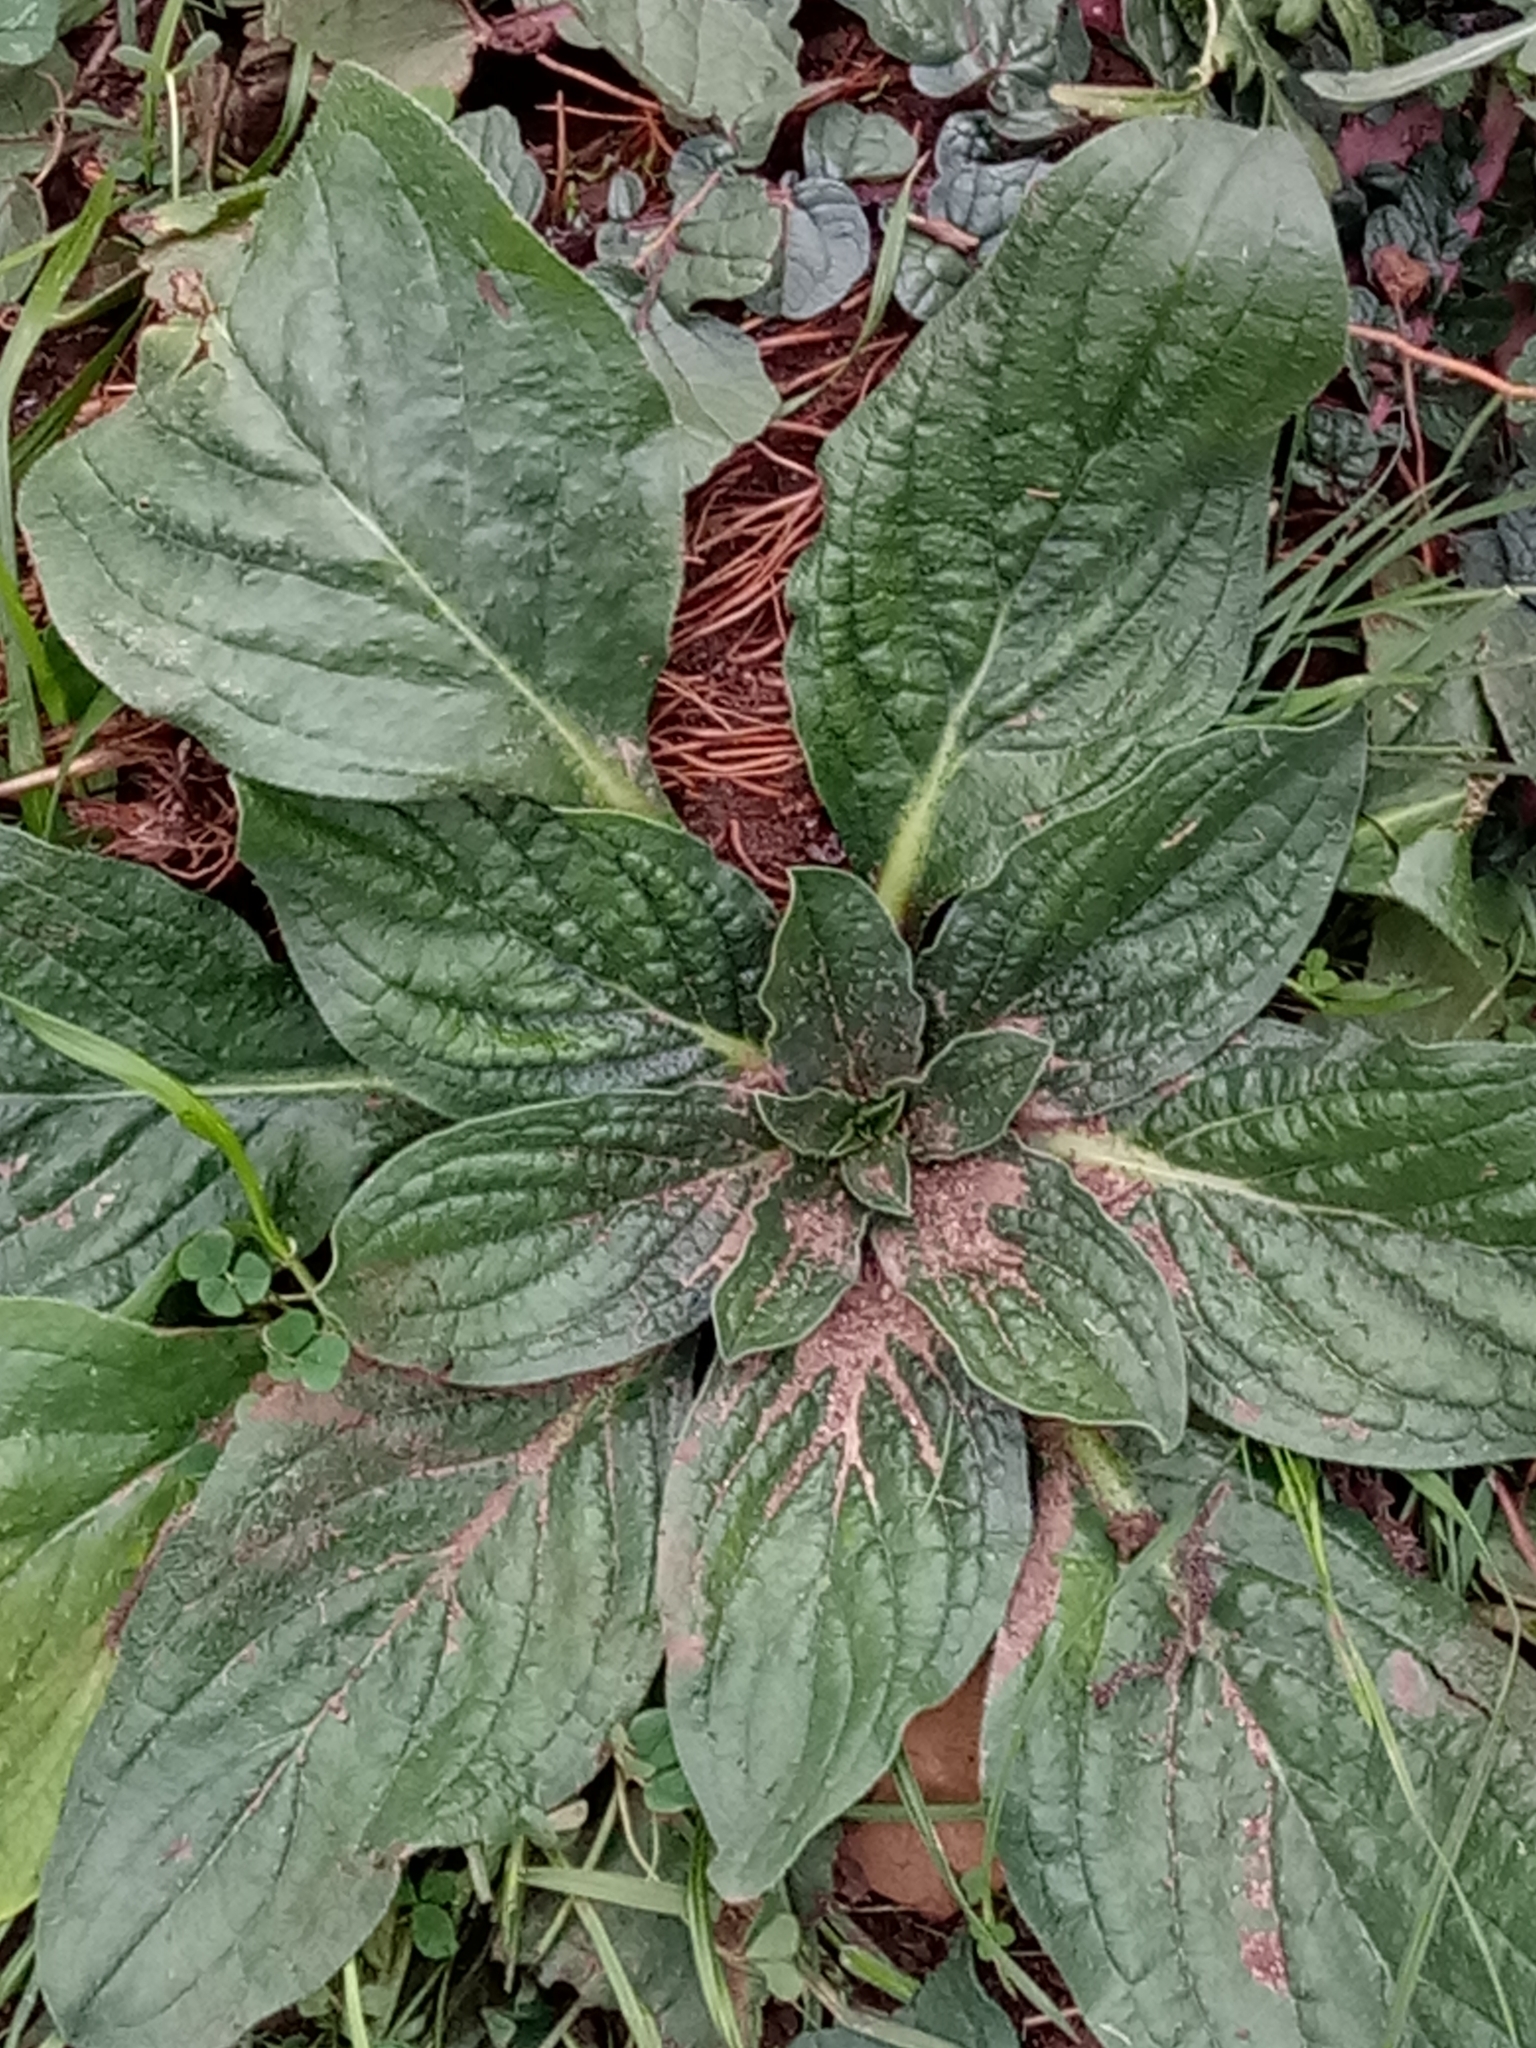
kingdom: Plantae
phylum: Tracheophyta
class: Magnoliopsida
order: Boraginales
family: Boraginaceae
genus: Echium
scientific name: Echium plantagineum
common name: Purple viper's-bugloss
